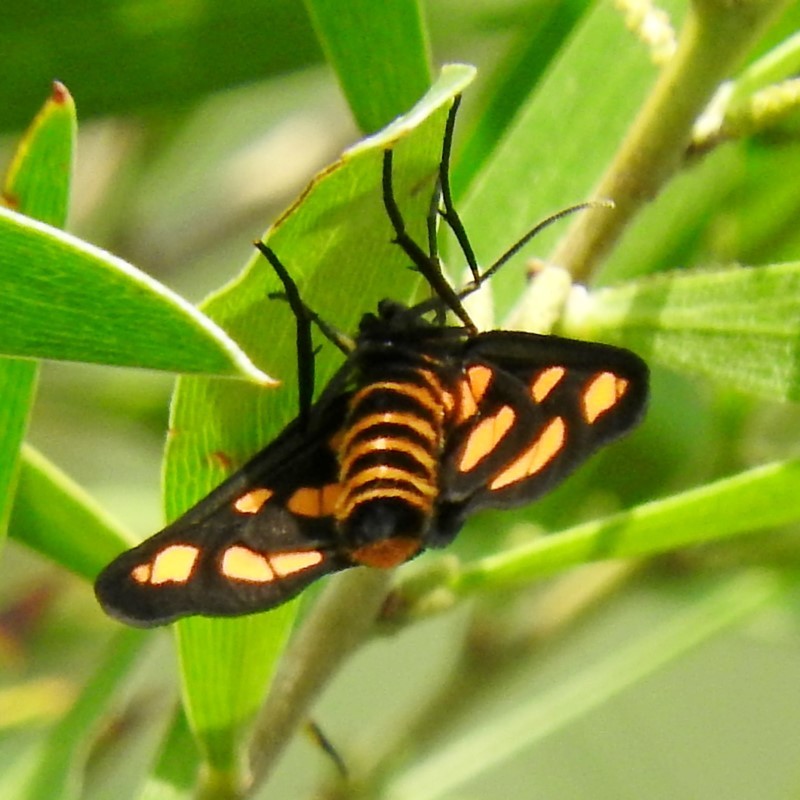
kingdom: Animalia
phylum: Arthropoda
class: Insecta
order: Lepidoptera
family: Erebidae
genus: Amata
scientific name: Amata nigriceps
